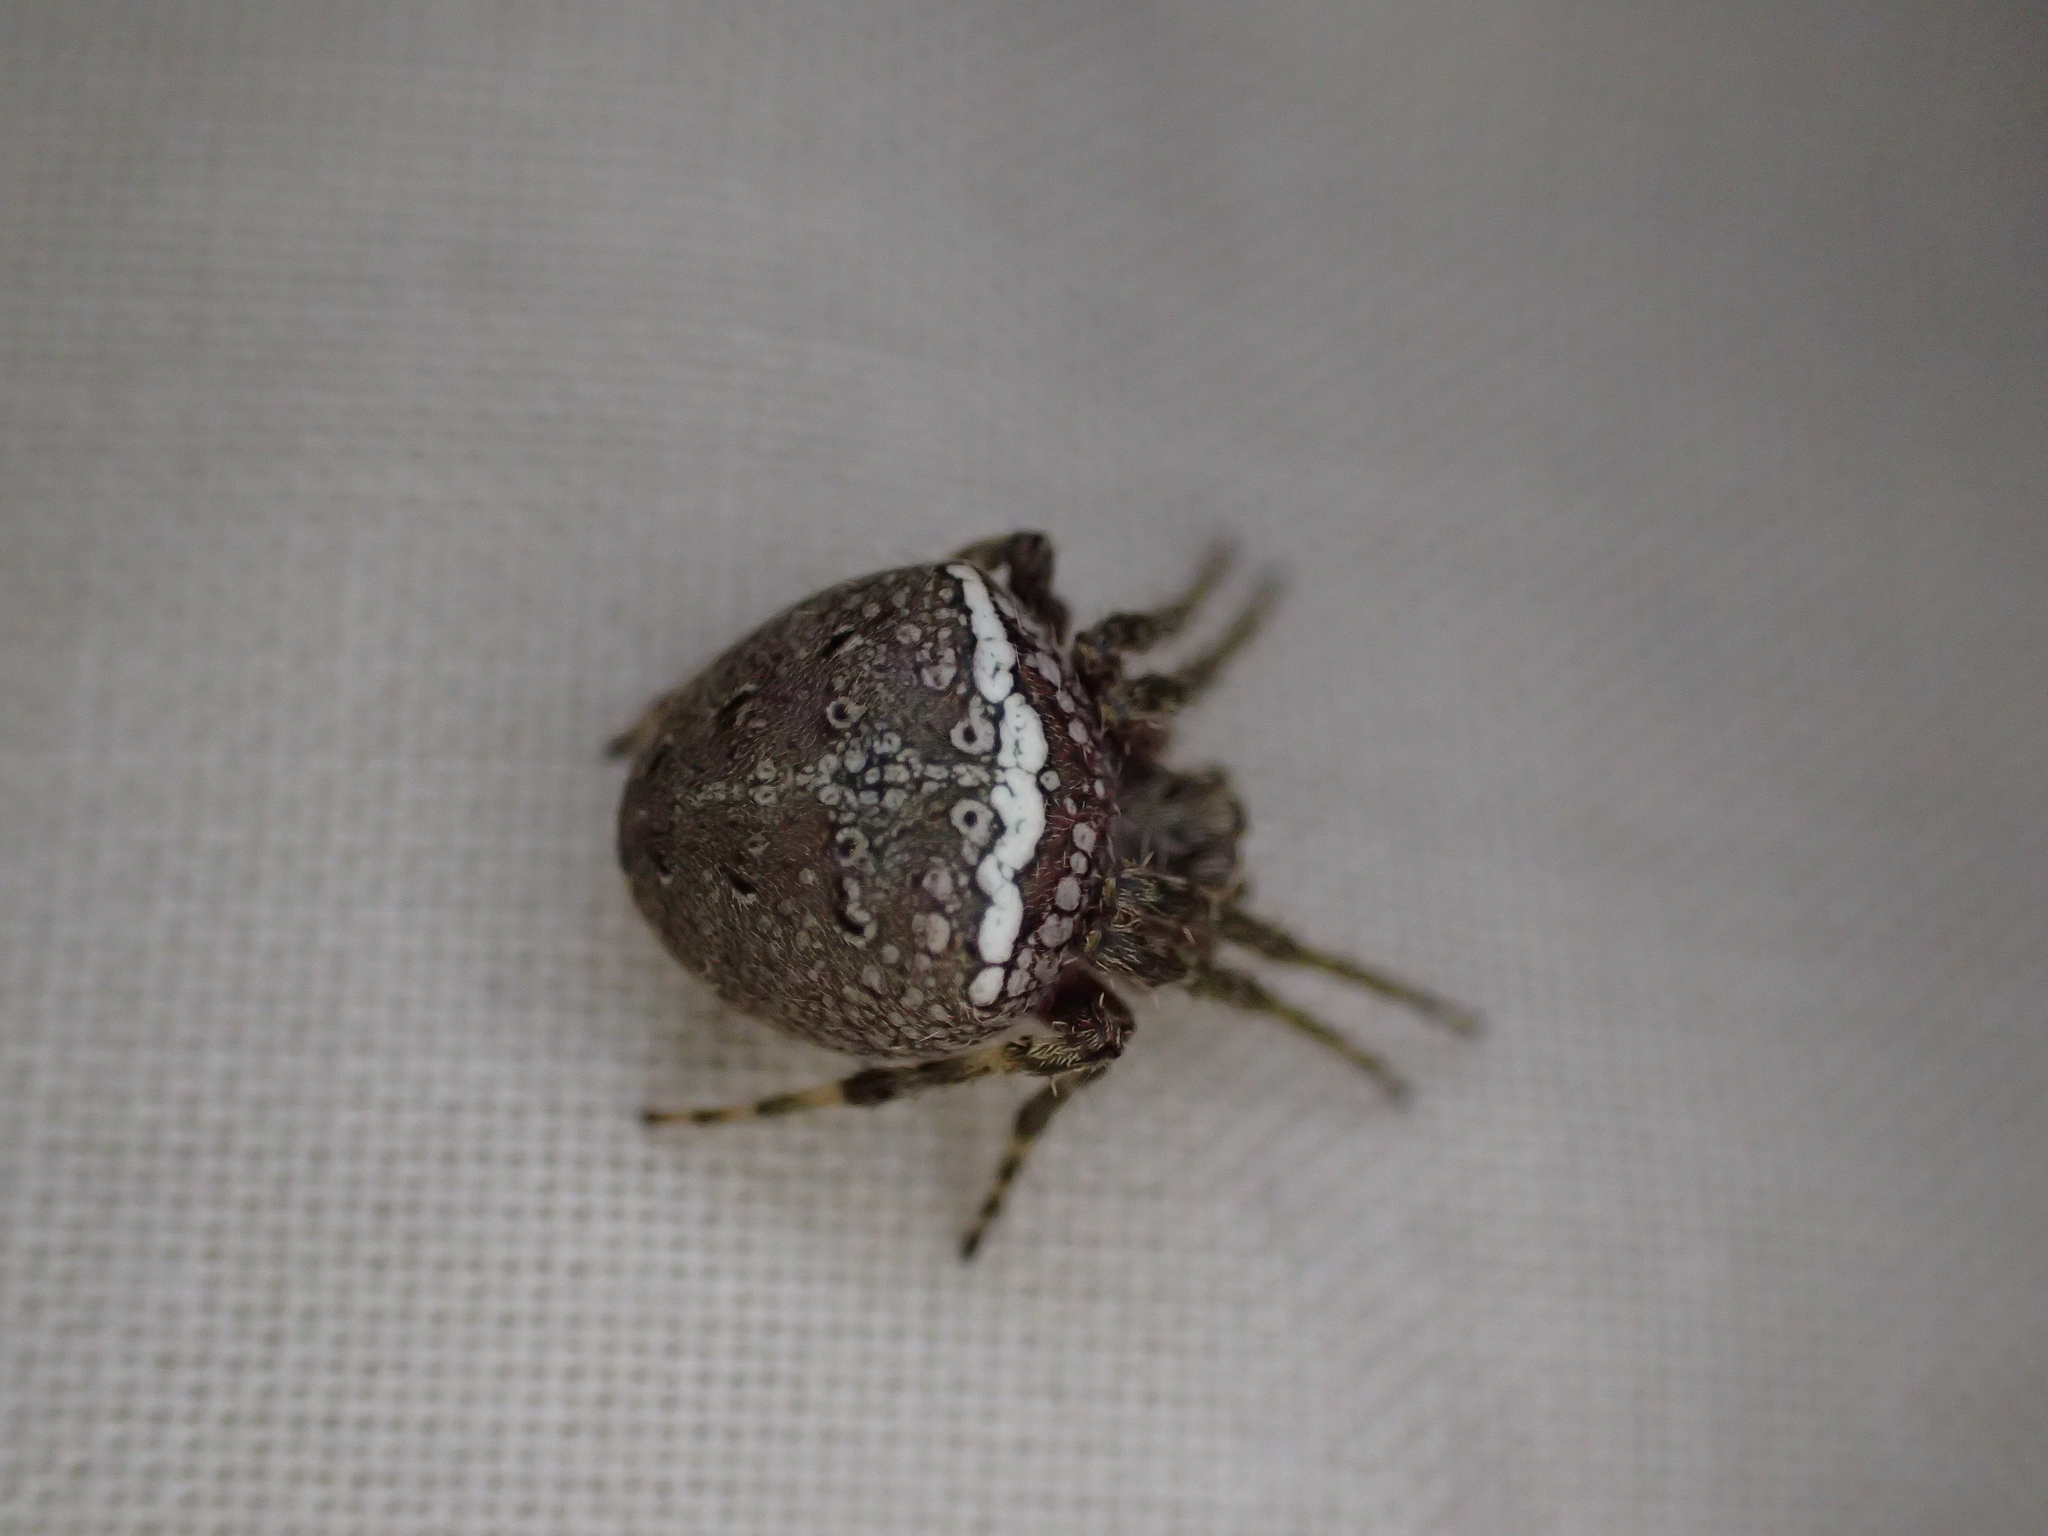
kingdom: Animalia
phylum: Arthropoda
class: Arachnida
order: Araneae
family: Araneidae
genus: Zealaranea
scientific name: Zealaranea crassa
